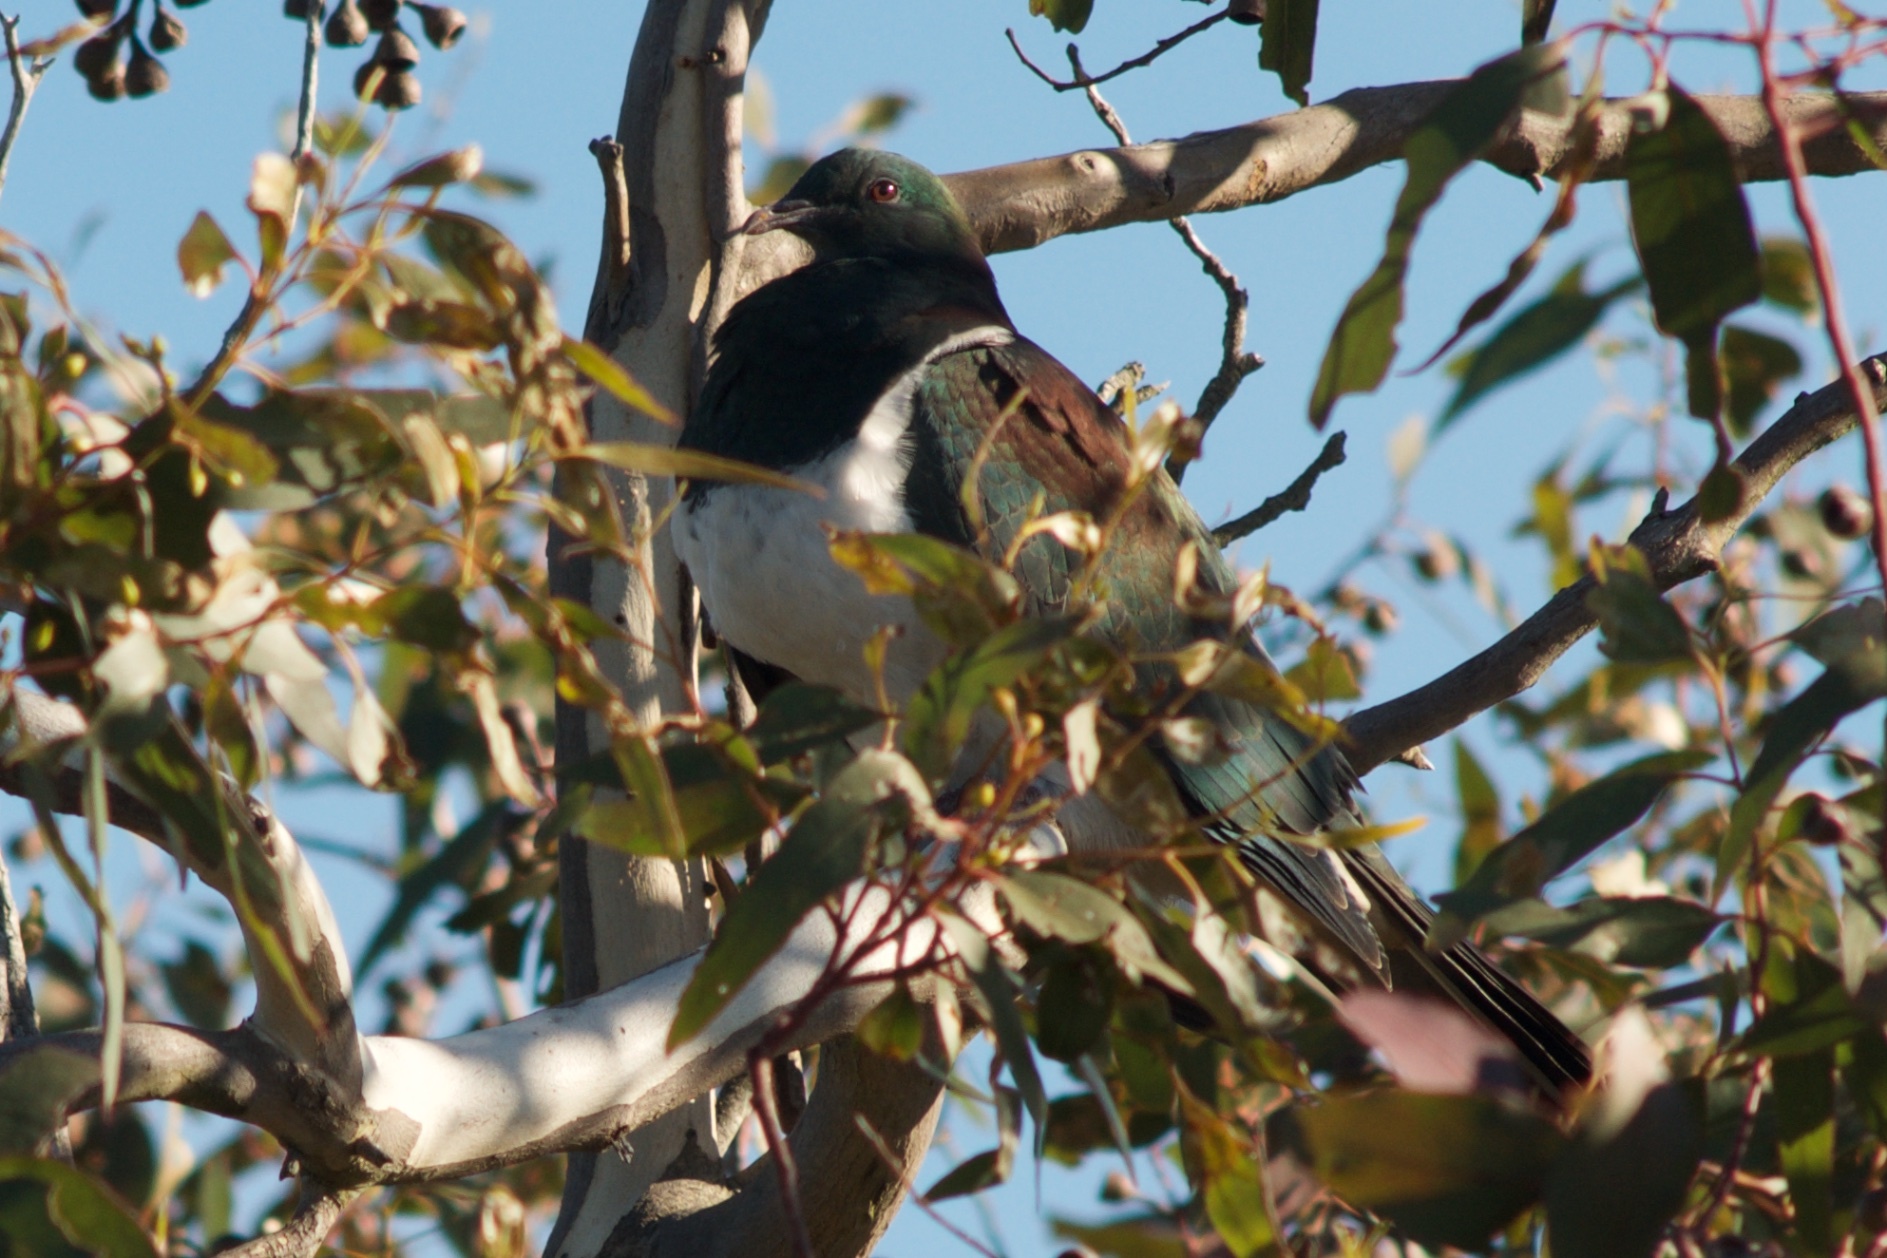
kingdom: Animalia
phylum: Chordata
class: Aves
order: Columbiformes
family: Columbidae
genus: Hemiphaga
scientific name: Hemiphaga novaeseelandiae
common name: New zealand pigeon
